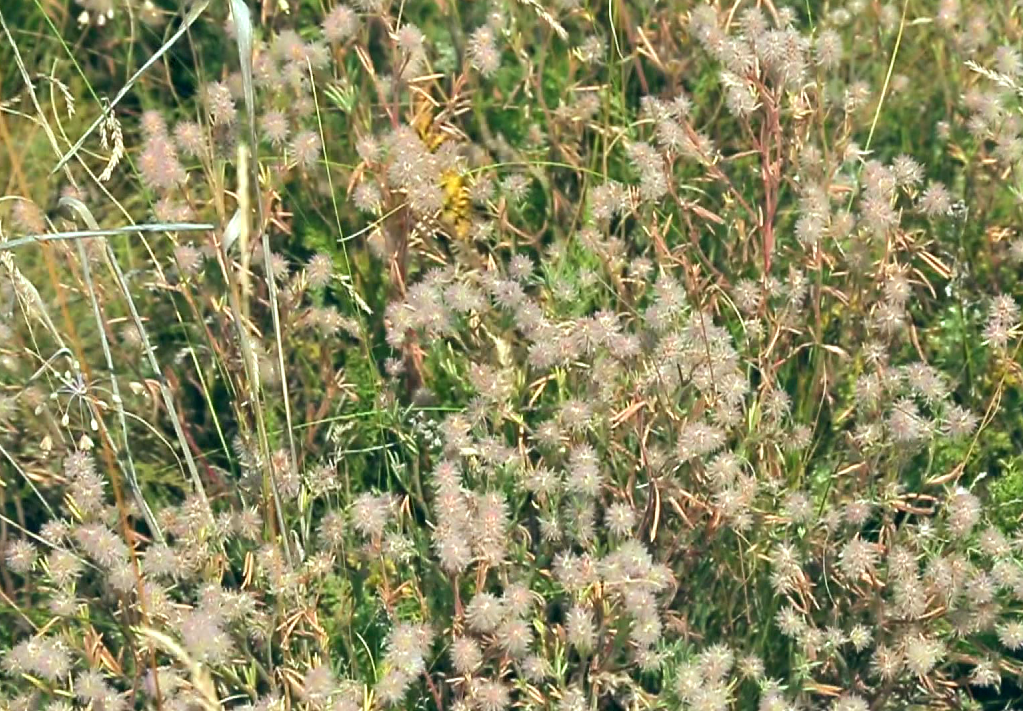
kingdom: Plantae
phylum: Tracheophyta
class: Magnoliopsida
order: Fabales
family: Fabaceae
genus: Trifolium
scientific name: Trifolium arvense
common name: Hare's-foot clover
